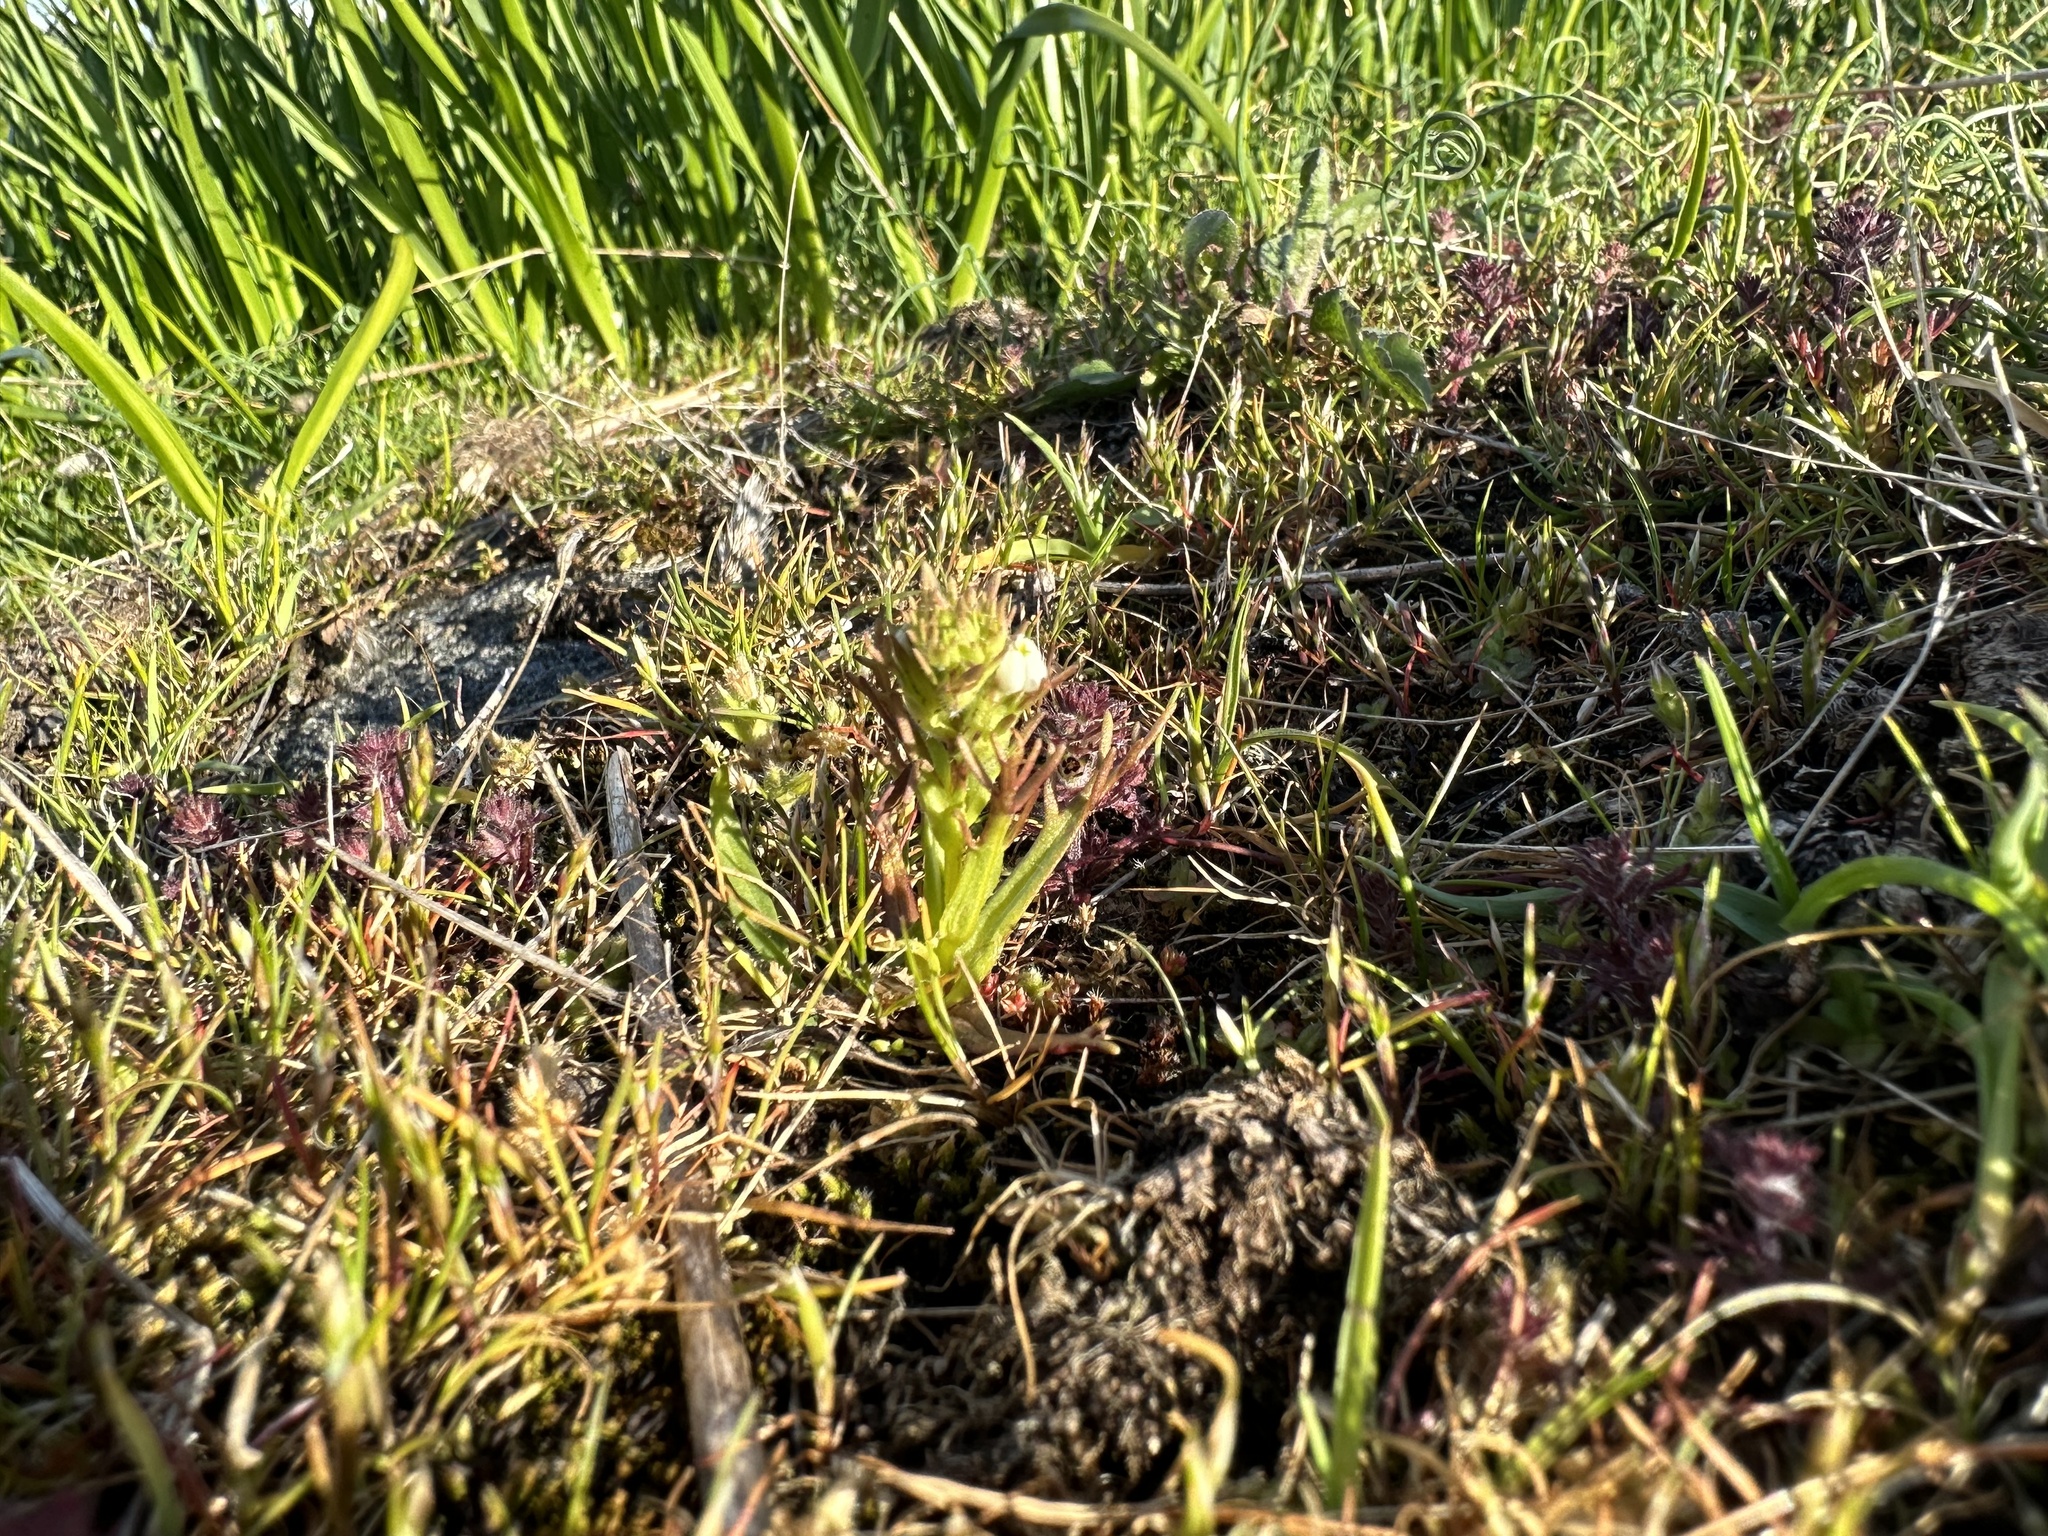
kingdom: Plantae
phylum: Tracheophyta
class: Magnoliopsida
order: Lamiales
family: Orobanchaceae
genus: Triphysaria
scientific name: Triphysaria versicolor
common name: Bearded false owl-clover
